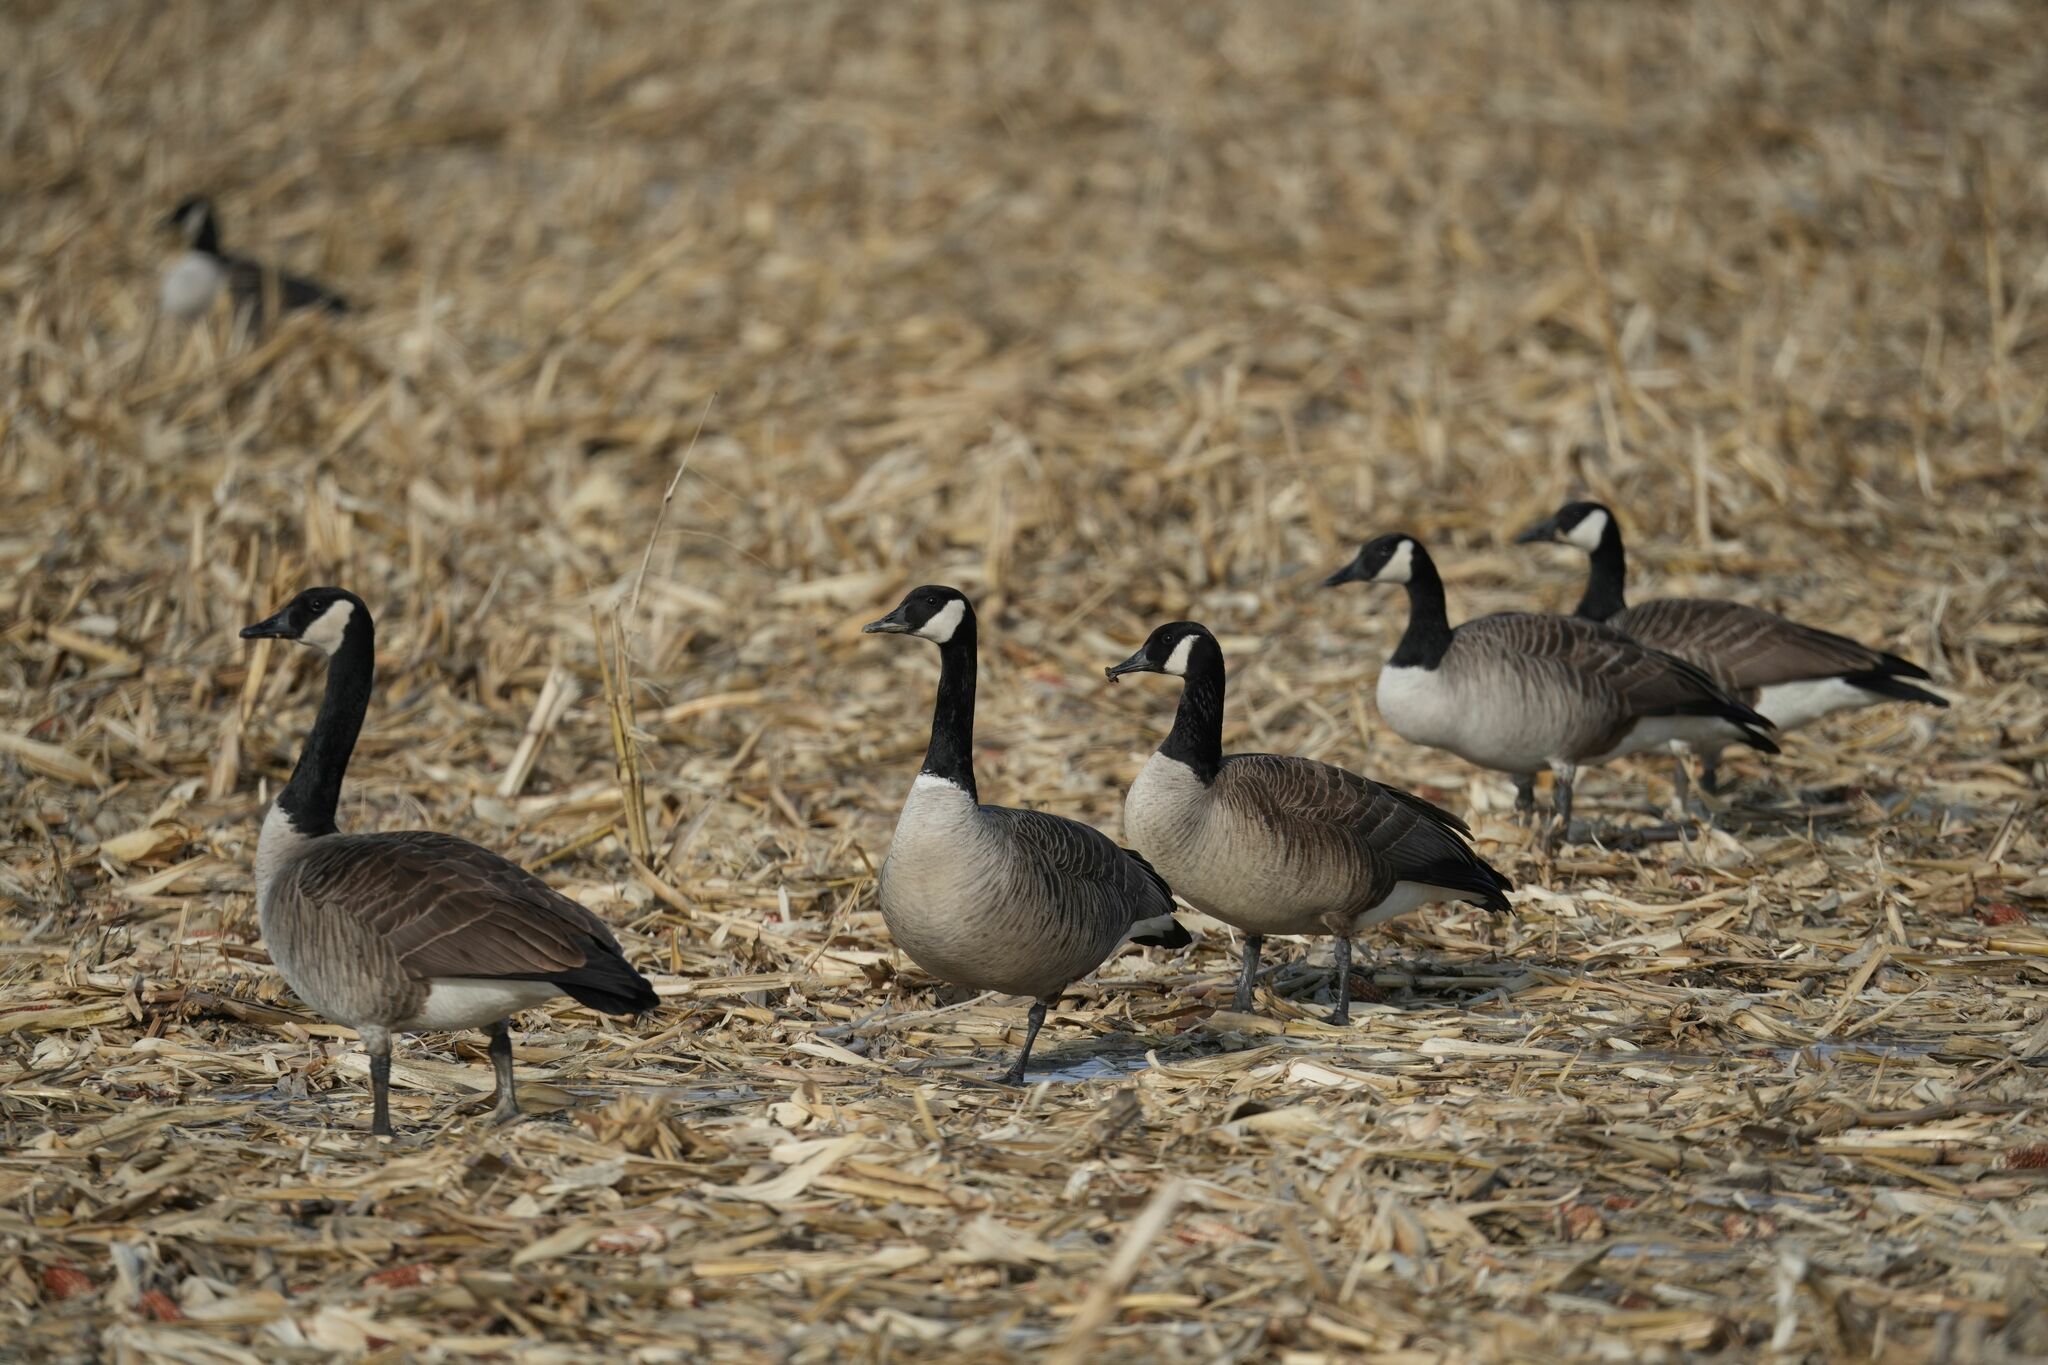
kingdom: Animalia
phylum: Chordata
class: Aves
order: Anseriformes
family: Anatidae
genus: Branta
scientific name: Branta canadensis
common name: Canada goose
